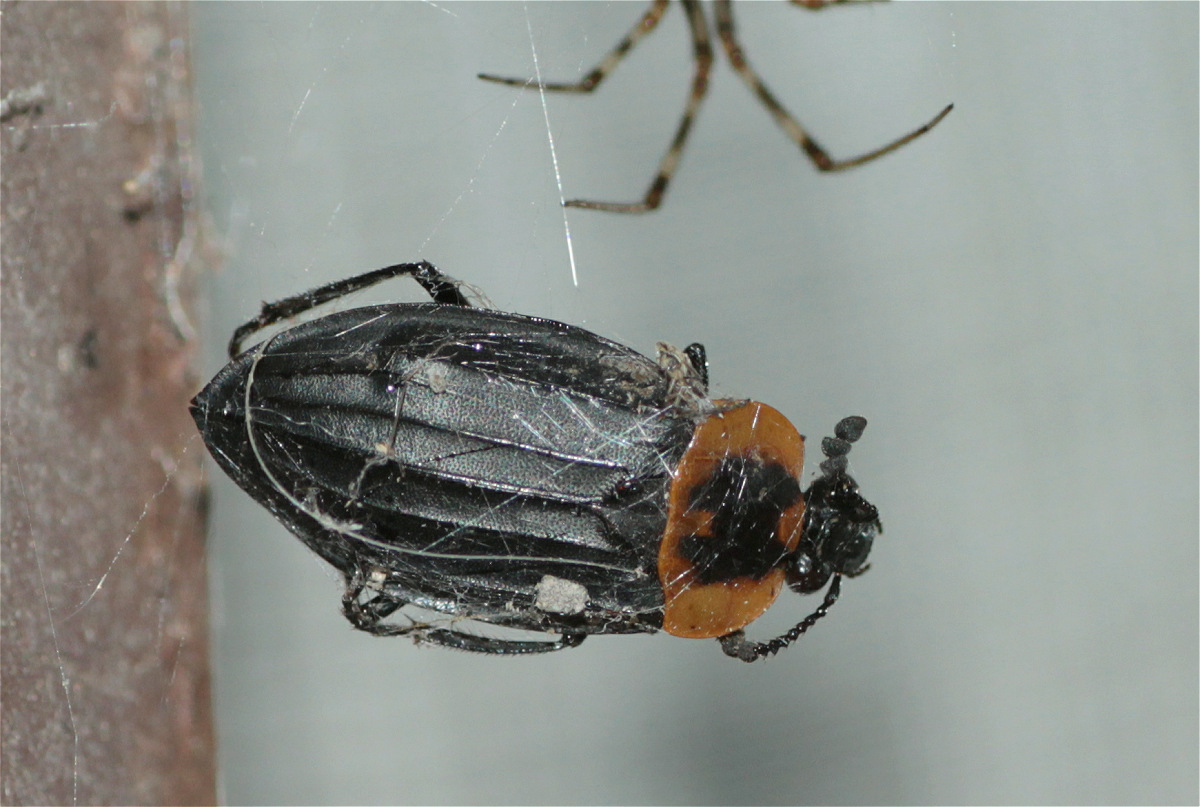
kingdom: Animalia
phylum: Arthropoda
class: Insecta
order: Coleoptera
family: Staphylinidae
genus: Oxelytrum
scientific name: Oxelytrum discicolle
